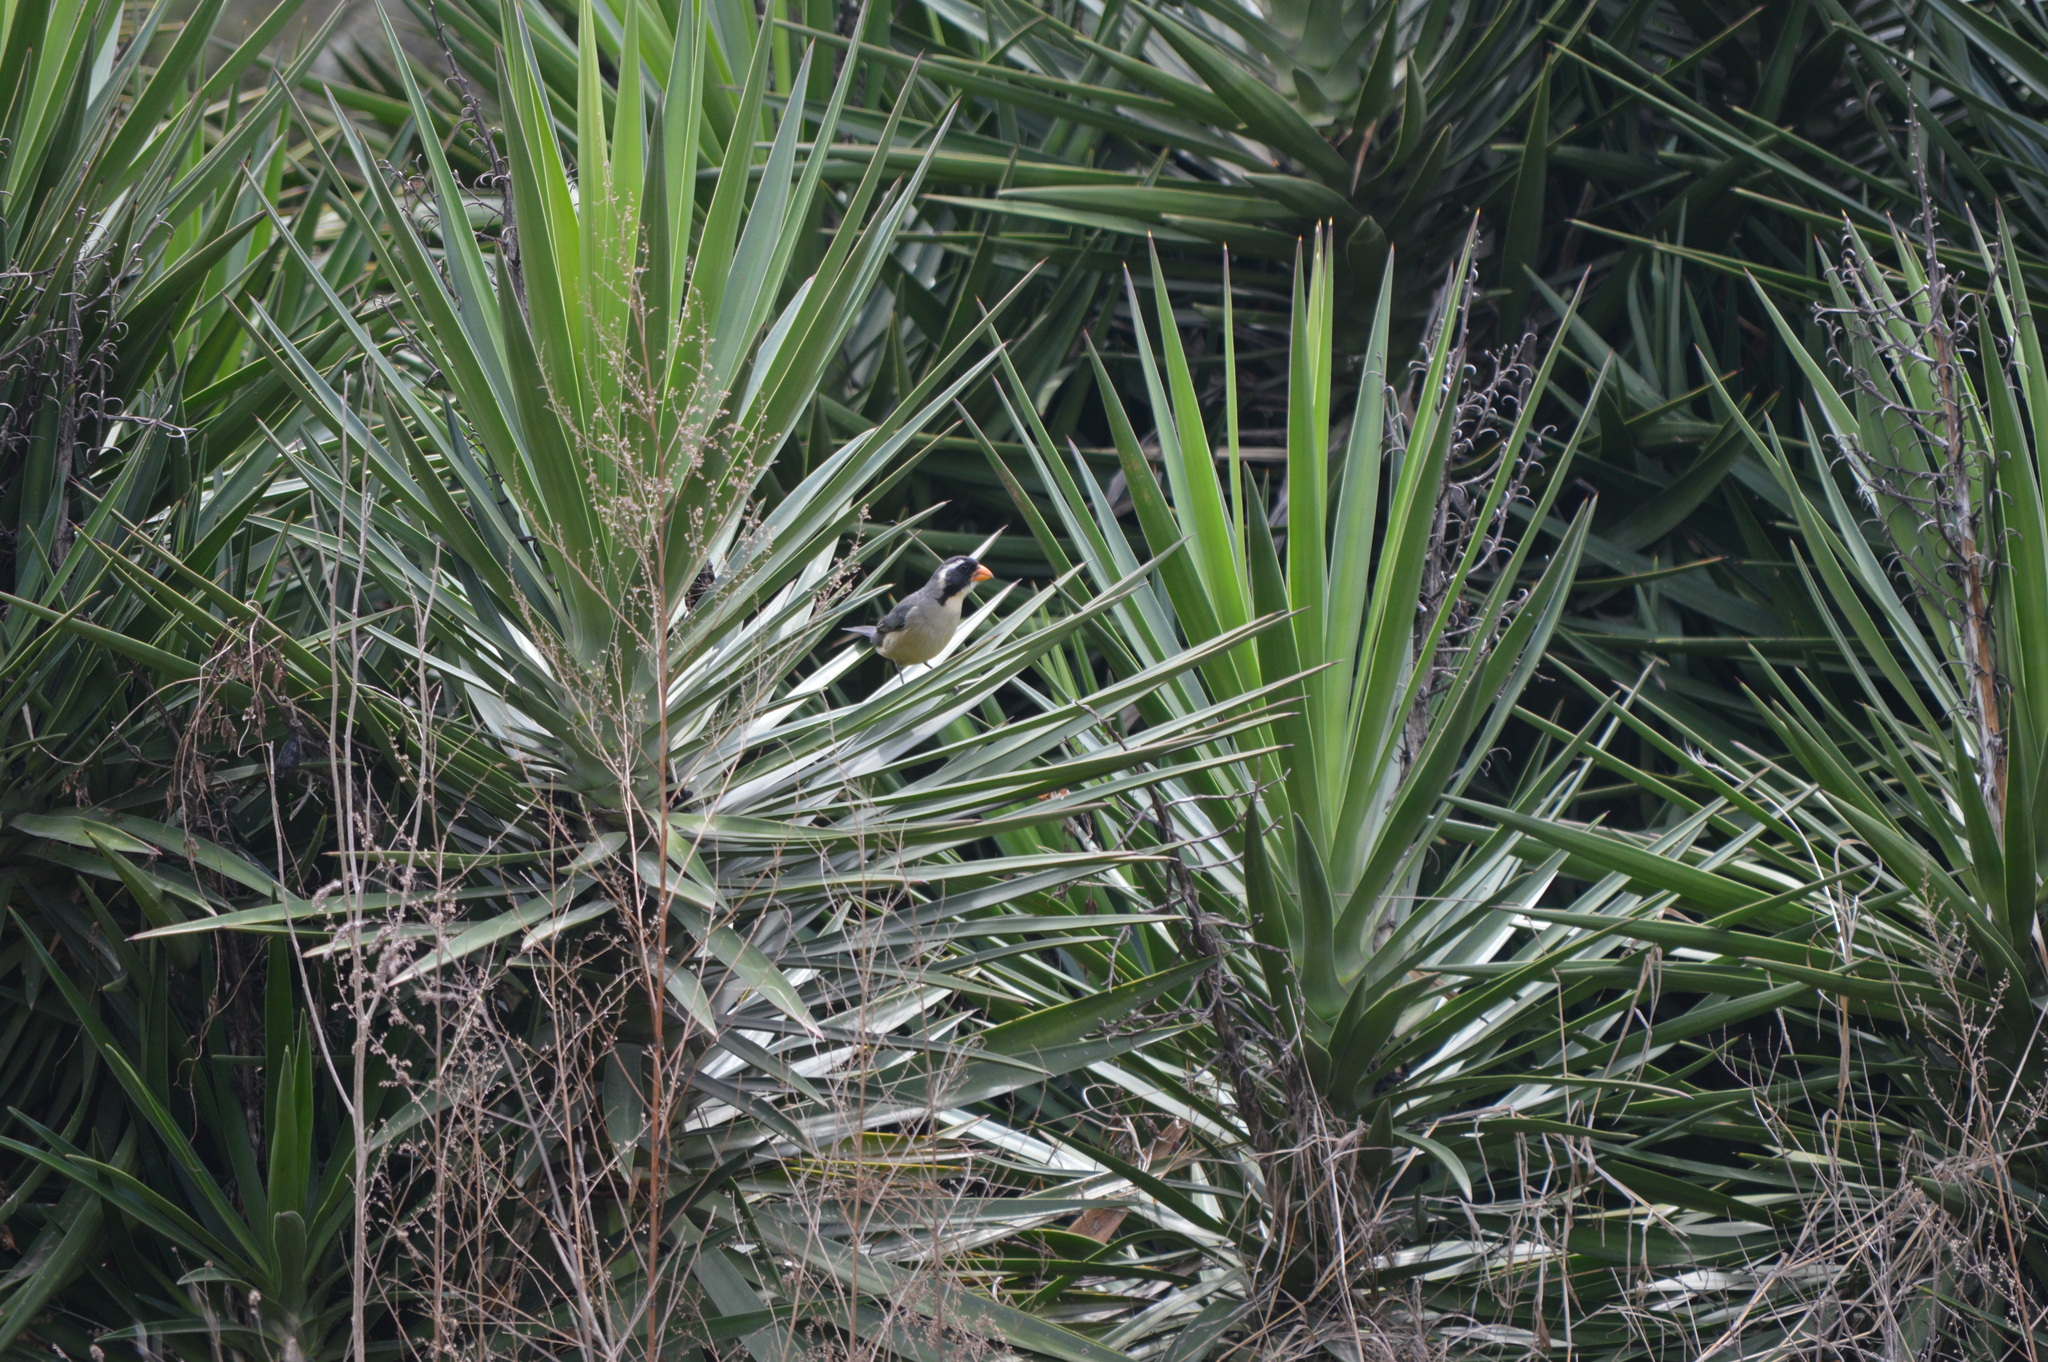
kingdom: Animalia
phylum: Chordata
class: Aves
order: Passeriformes
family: Thraupidae
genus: Saltator
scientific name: Saltator aurantiirostris
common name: Golden-billed saltator
